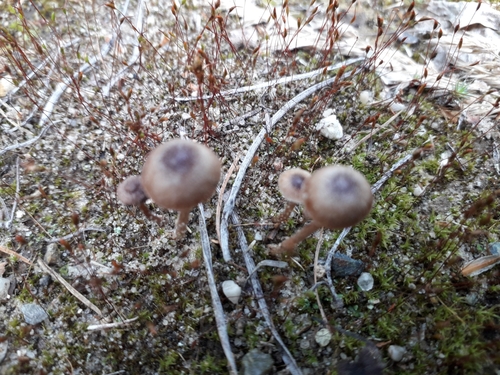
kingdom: Fungi
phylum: Basidiomycota
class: Agaricomycetes
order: Agaricales
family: Entolomataceae
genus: Nolanea
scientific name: Nolanea
